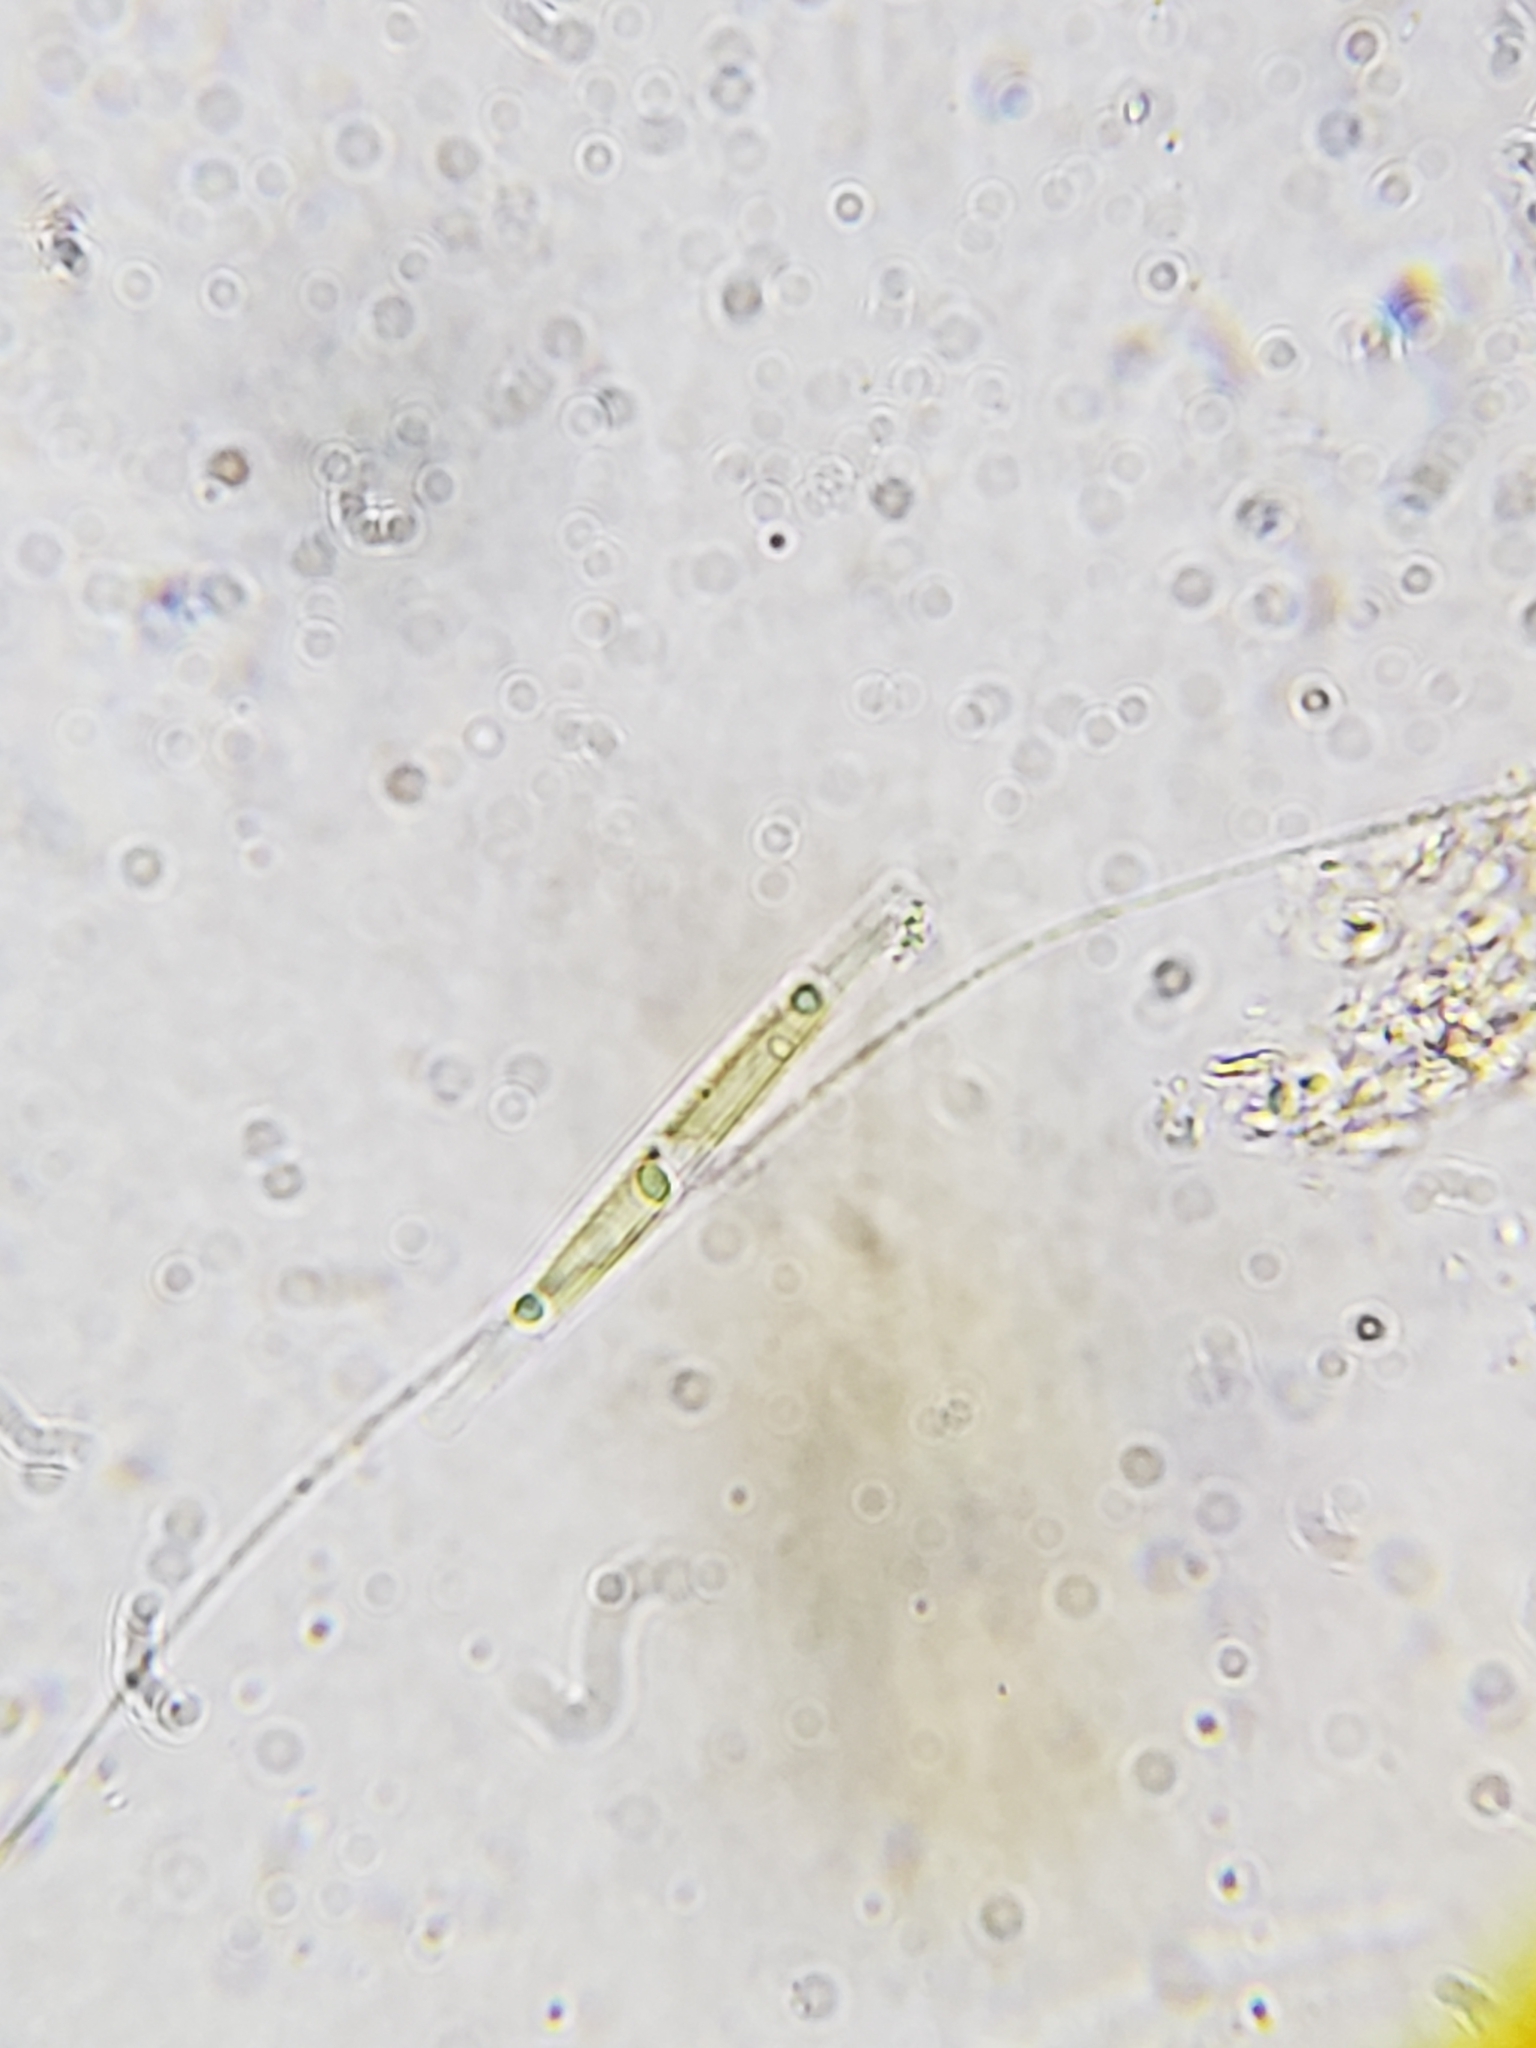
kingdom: Chromista
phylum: Ochrophyta
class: Bacillariophyceae
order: Bacillariales
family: Bacillariaceae
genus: Nitzschia
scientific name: Nitzschia
